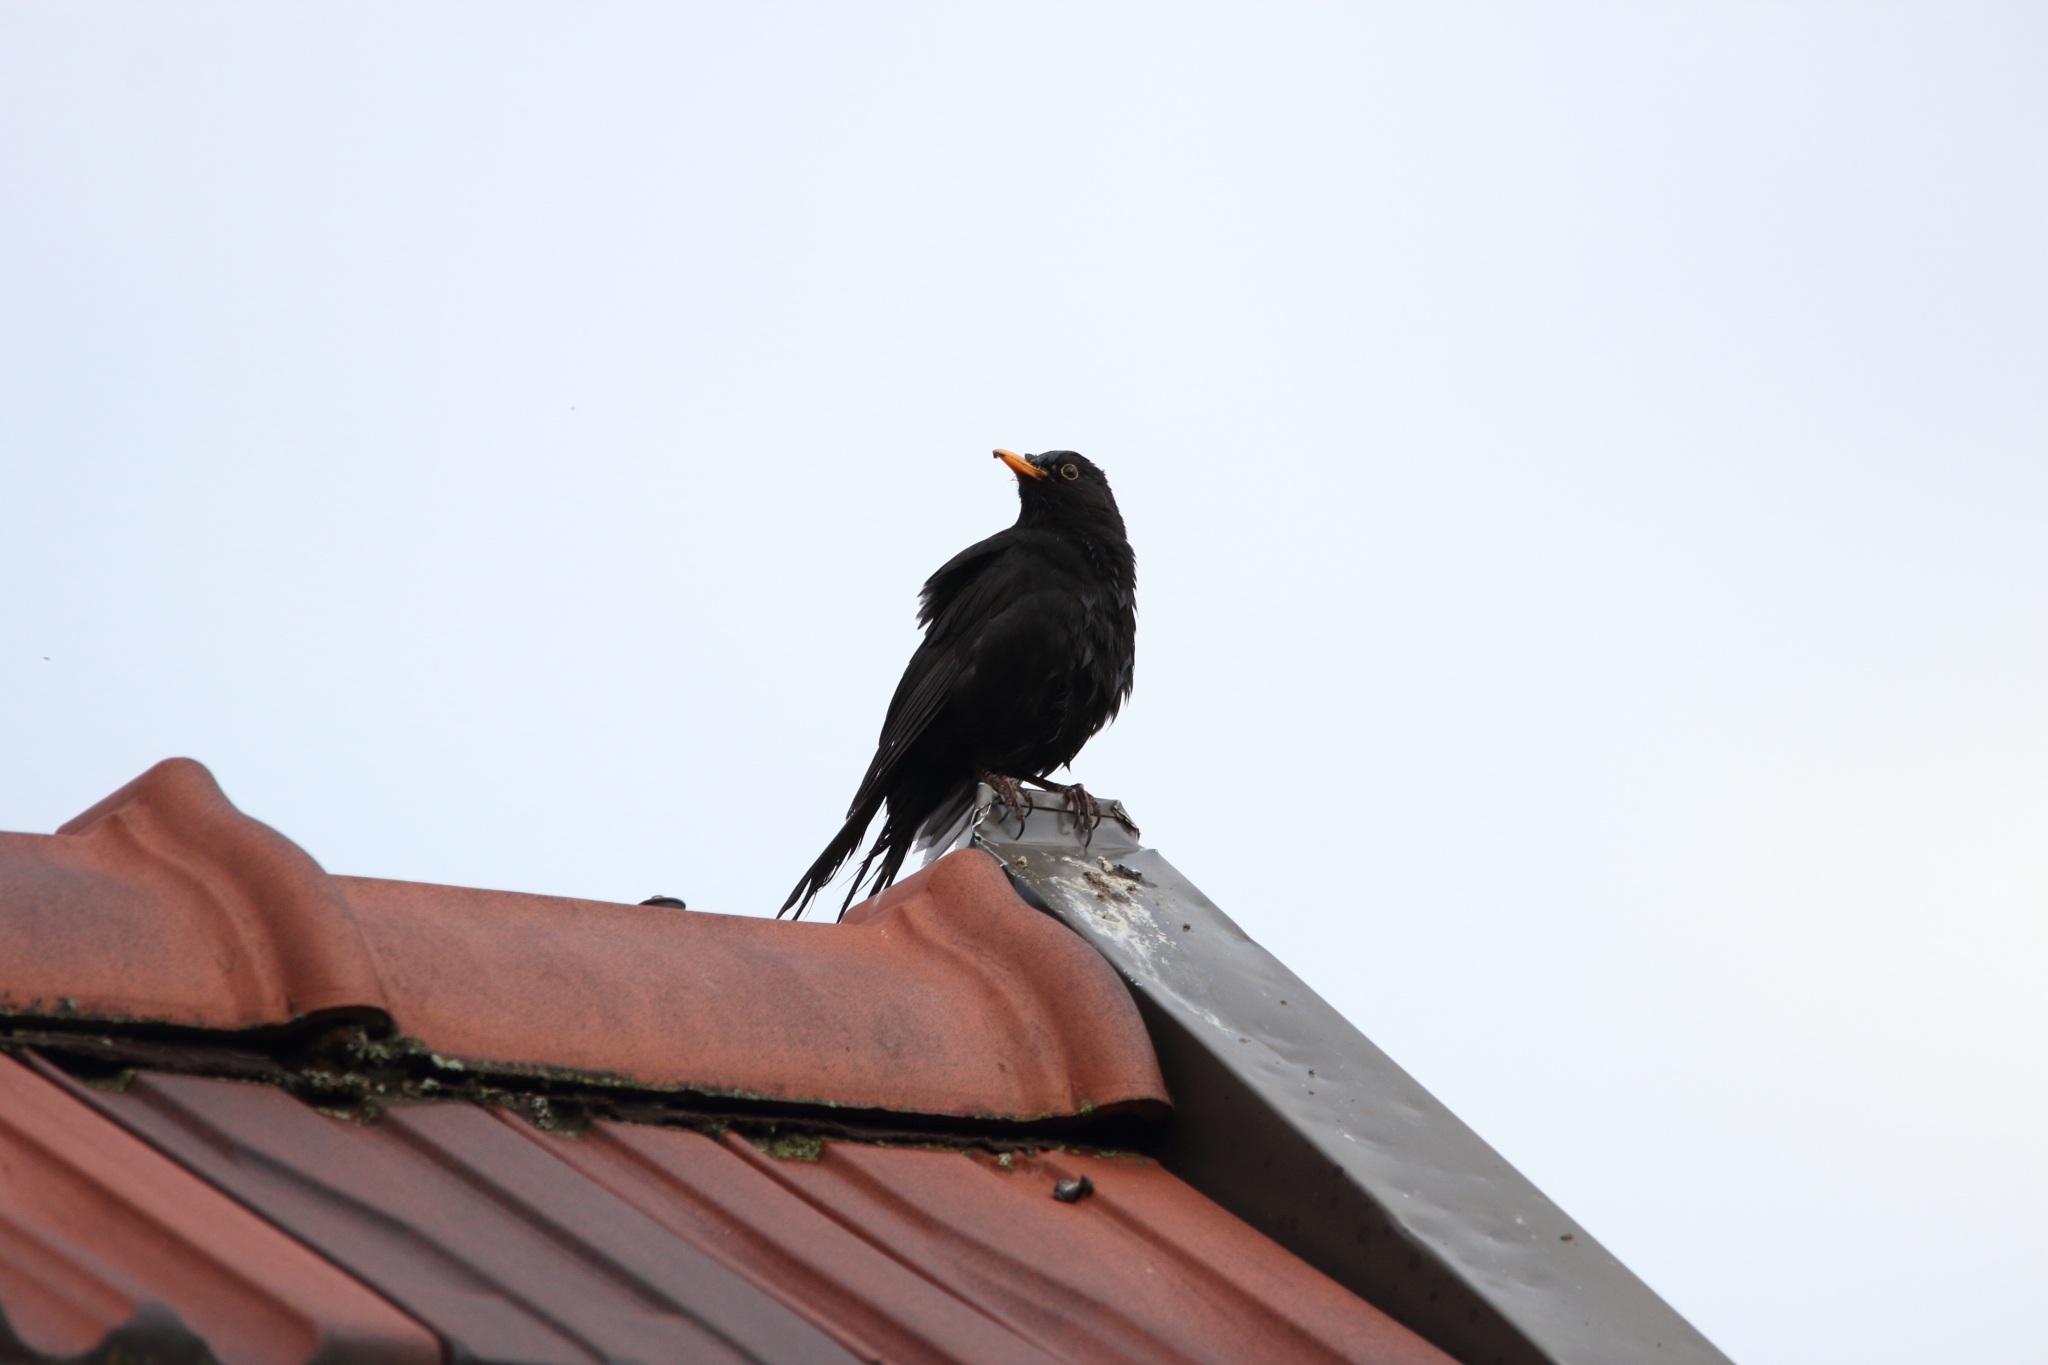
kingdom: Animalia
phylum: Chordata
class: Aves
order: Passeriformes
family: Sturnidae
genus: Sturnus
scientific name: Sturnus vulgaris
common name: Common starling
